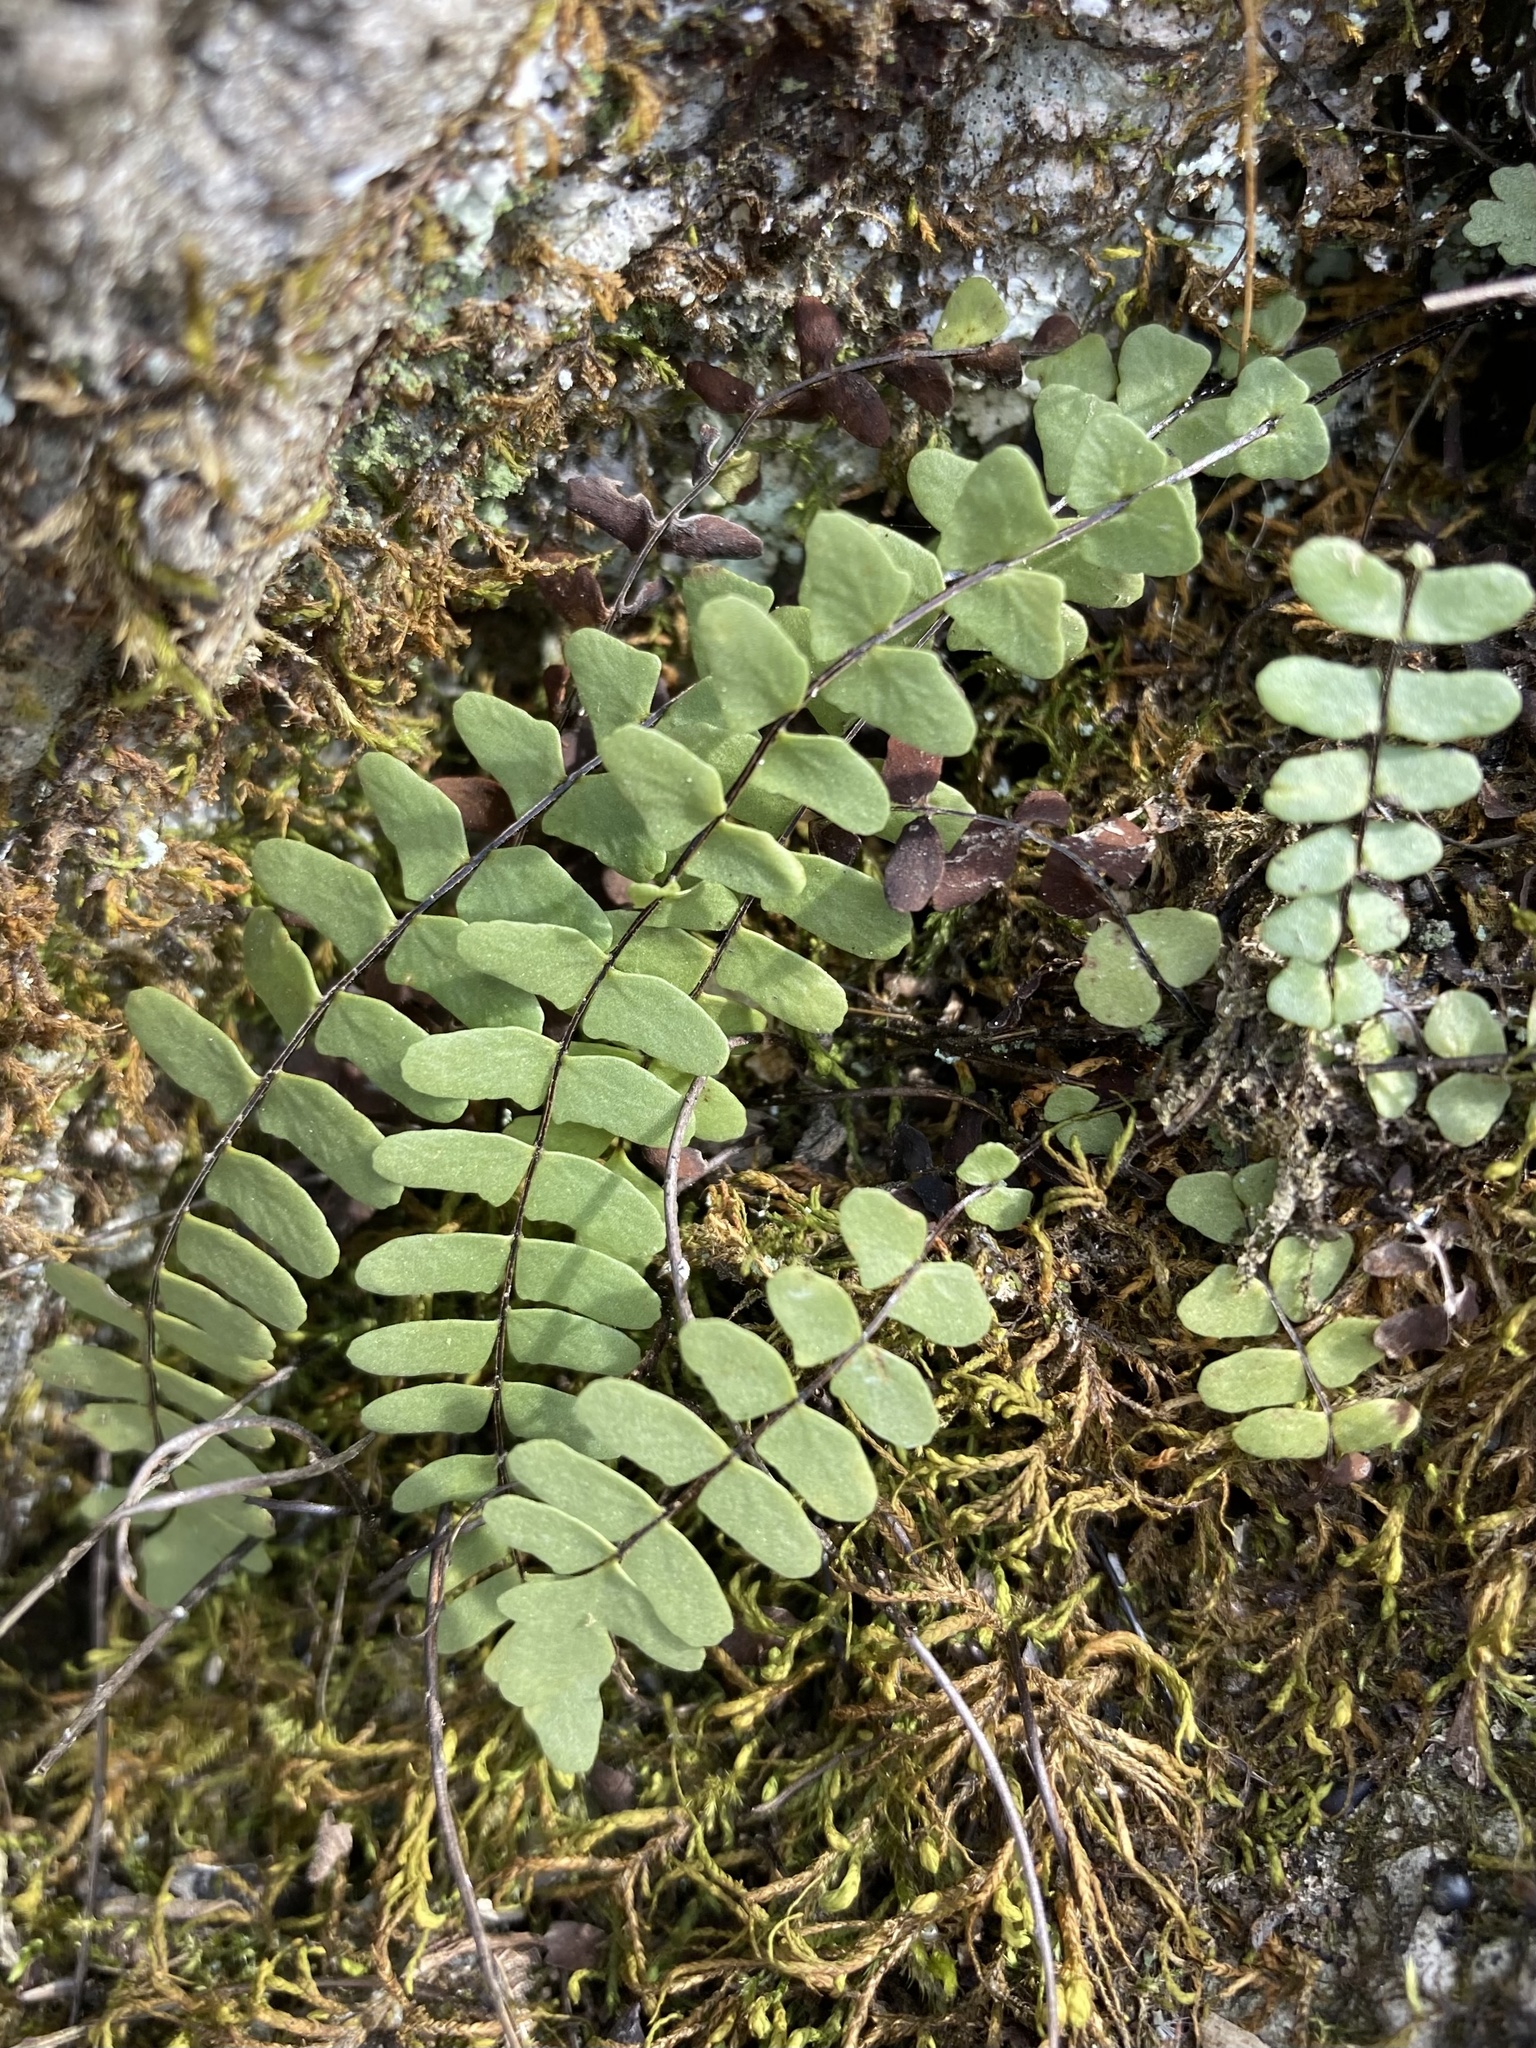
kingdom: Plantae
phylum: Tracheophyta
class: Polypodiopsida
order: Polypodiales
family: Aspleniaceae
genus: Asplenium
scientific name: Asplenium resiliens
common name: Blackstem spleenwort
